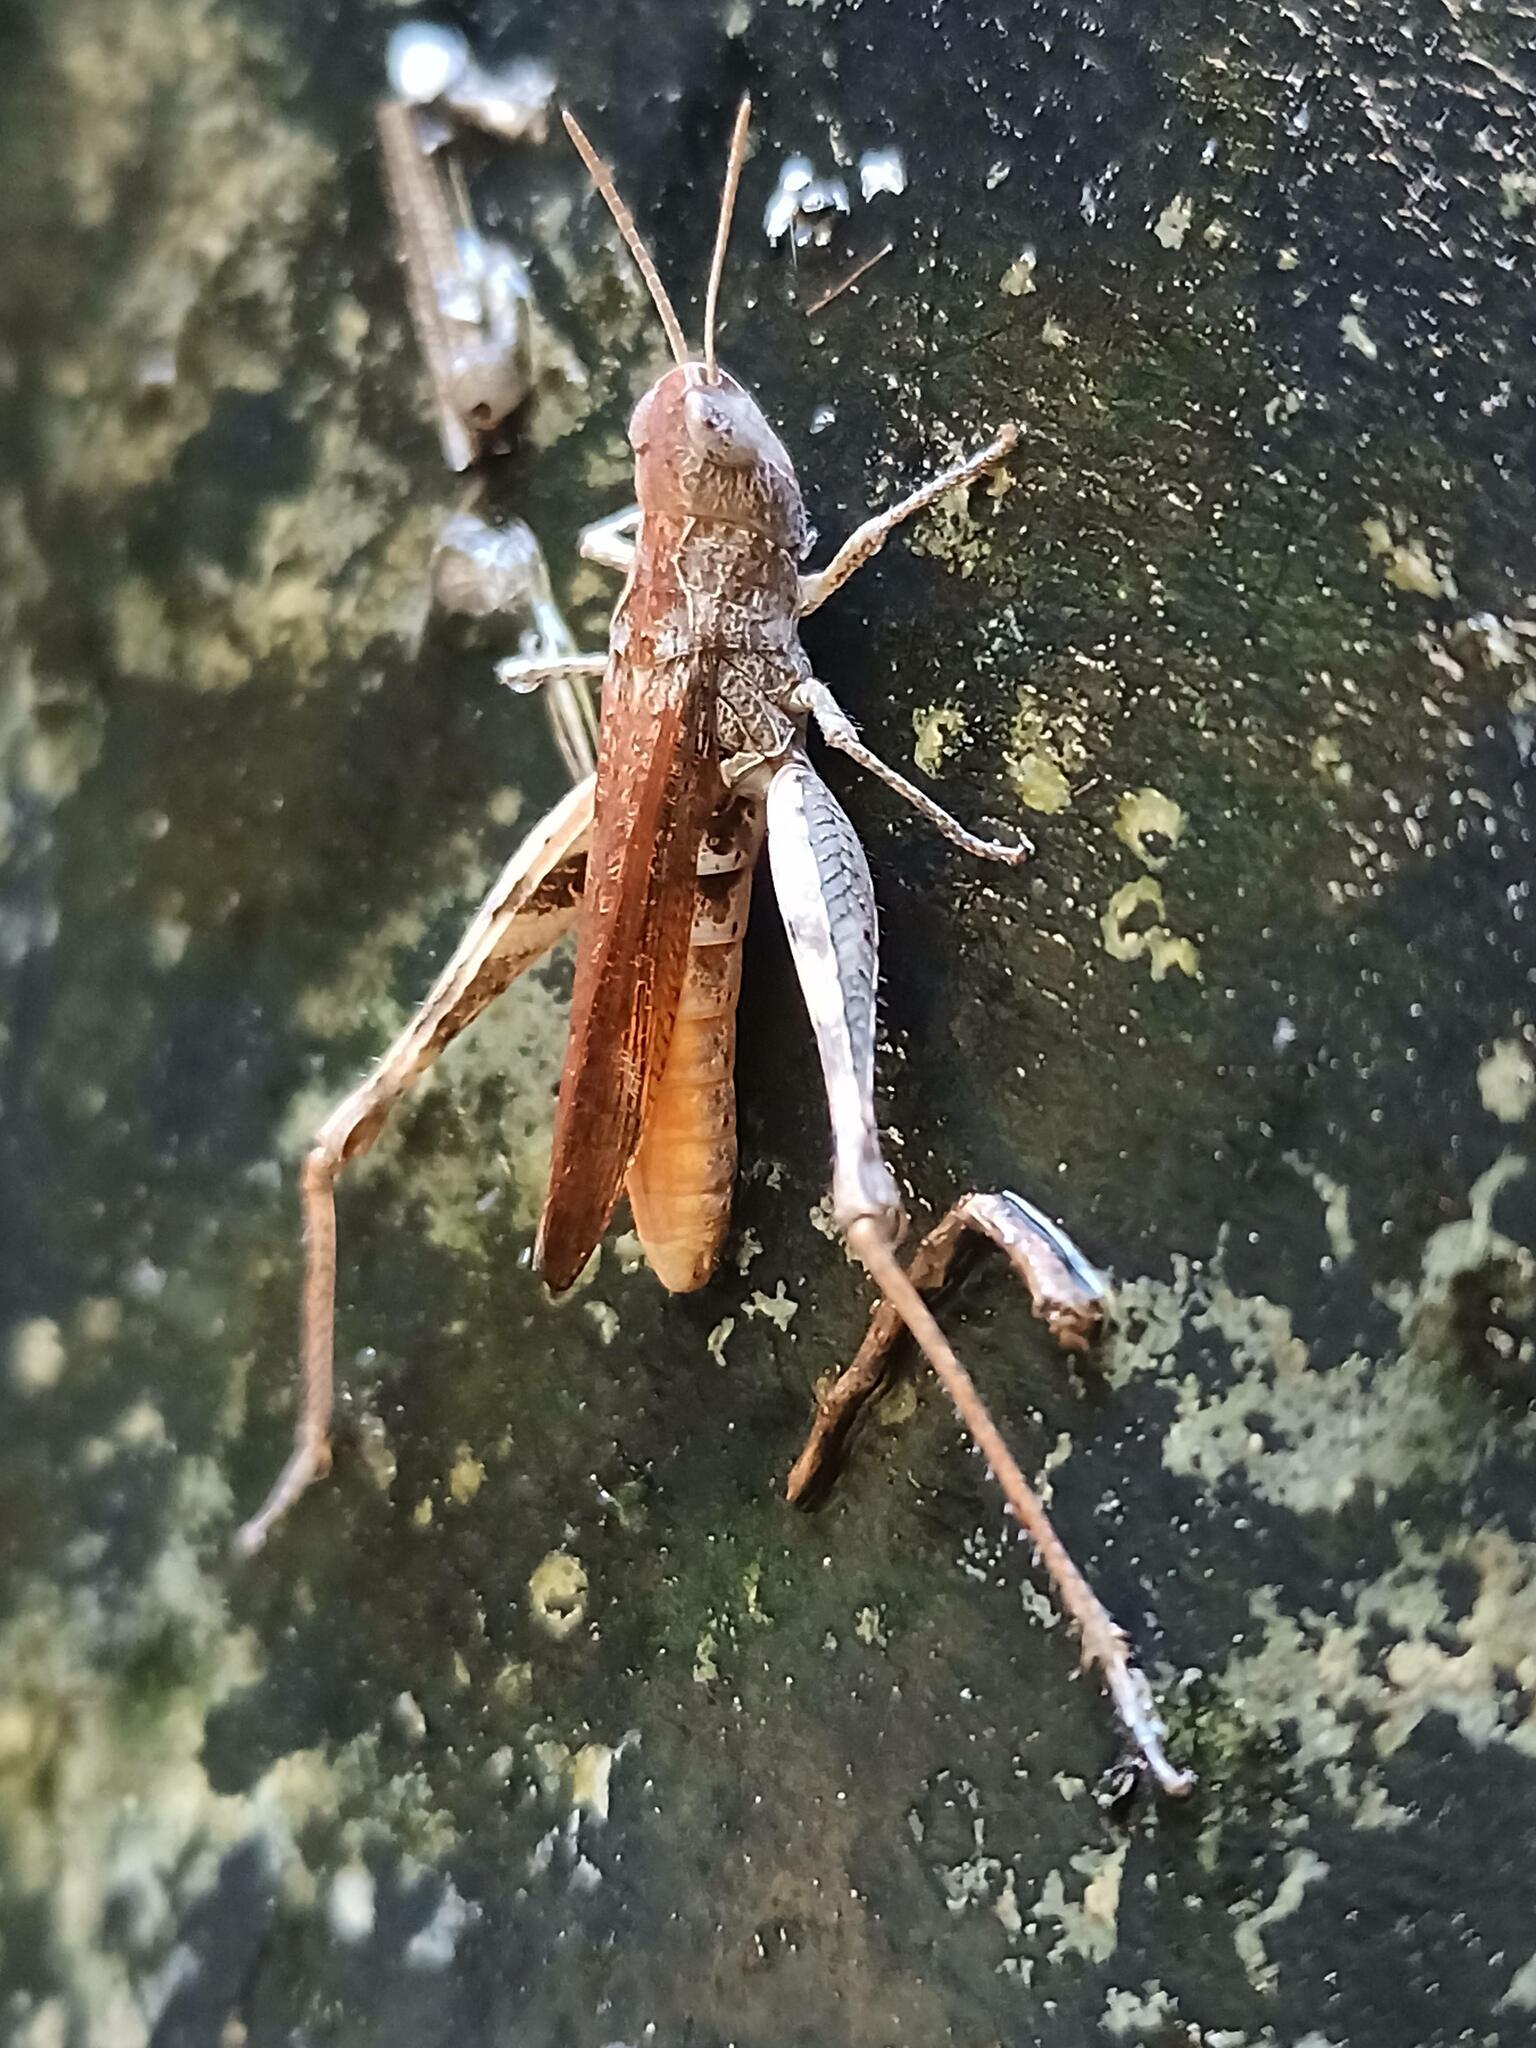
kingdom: Animalia
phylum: Arthropoda
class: Insecta
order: Orthoptera
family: Acrididae
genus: Chorthippus
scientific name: Chorthippus vagans
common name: Heath grasshopper
